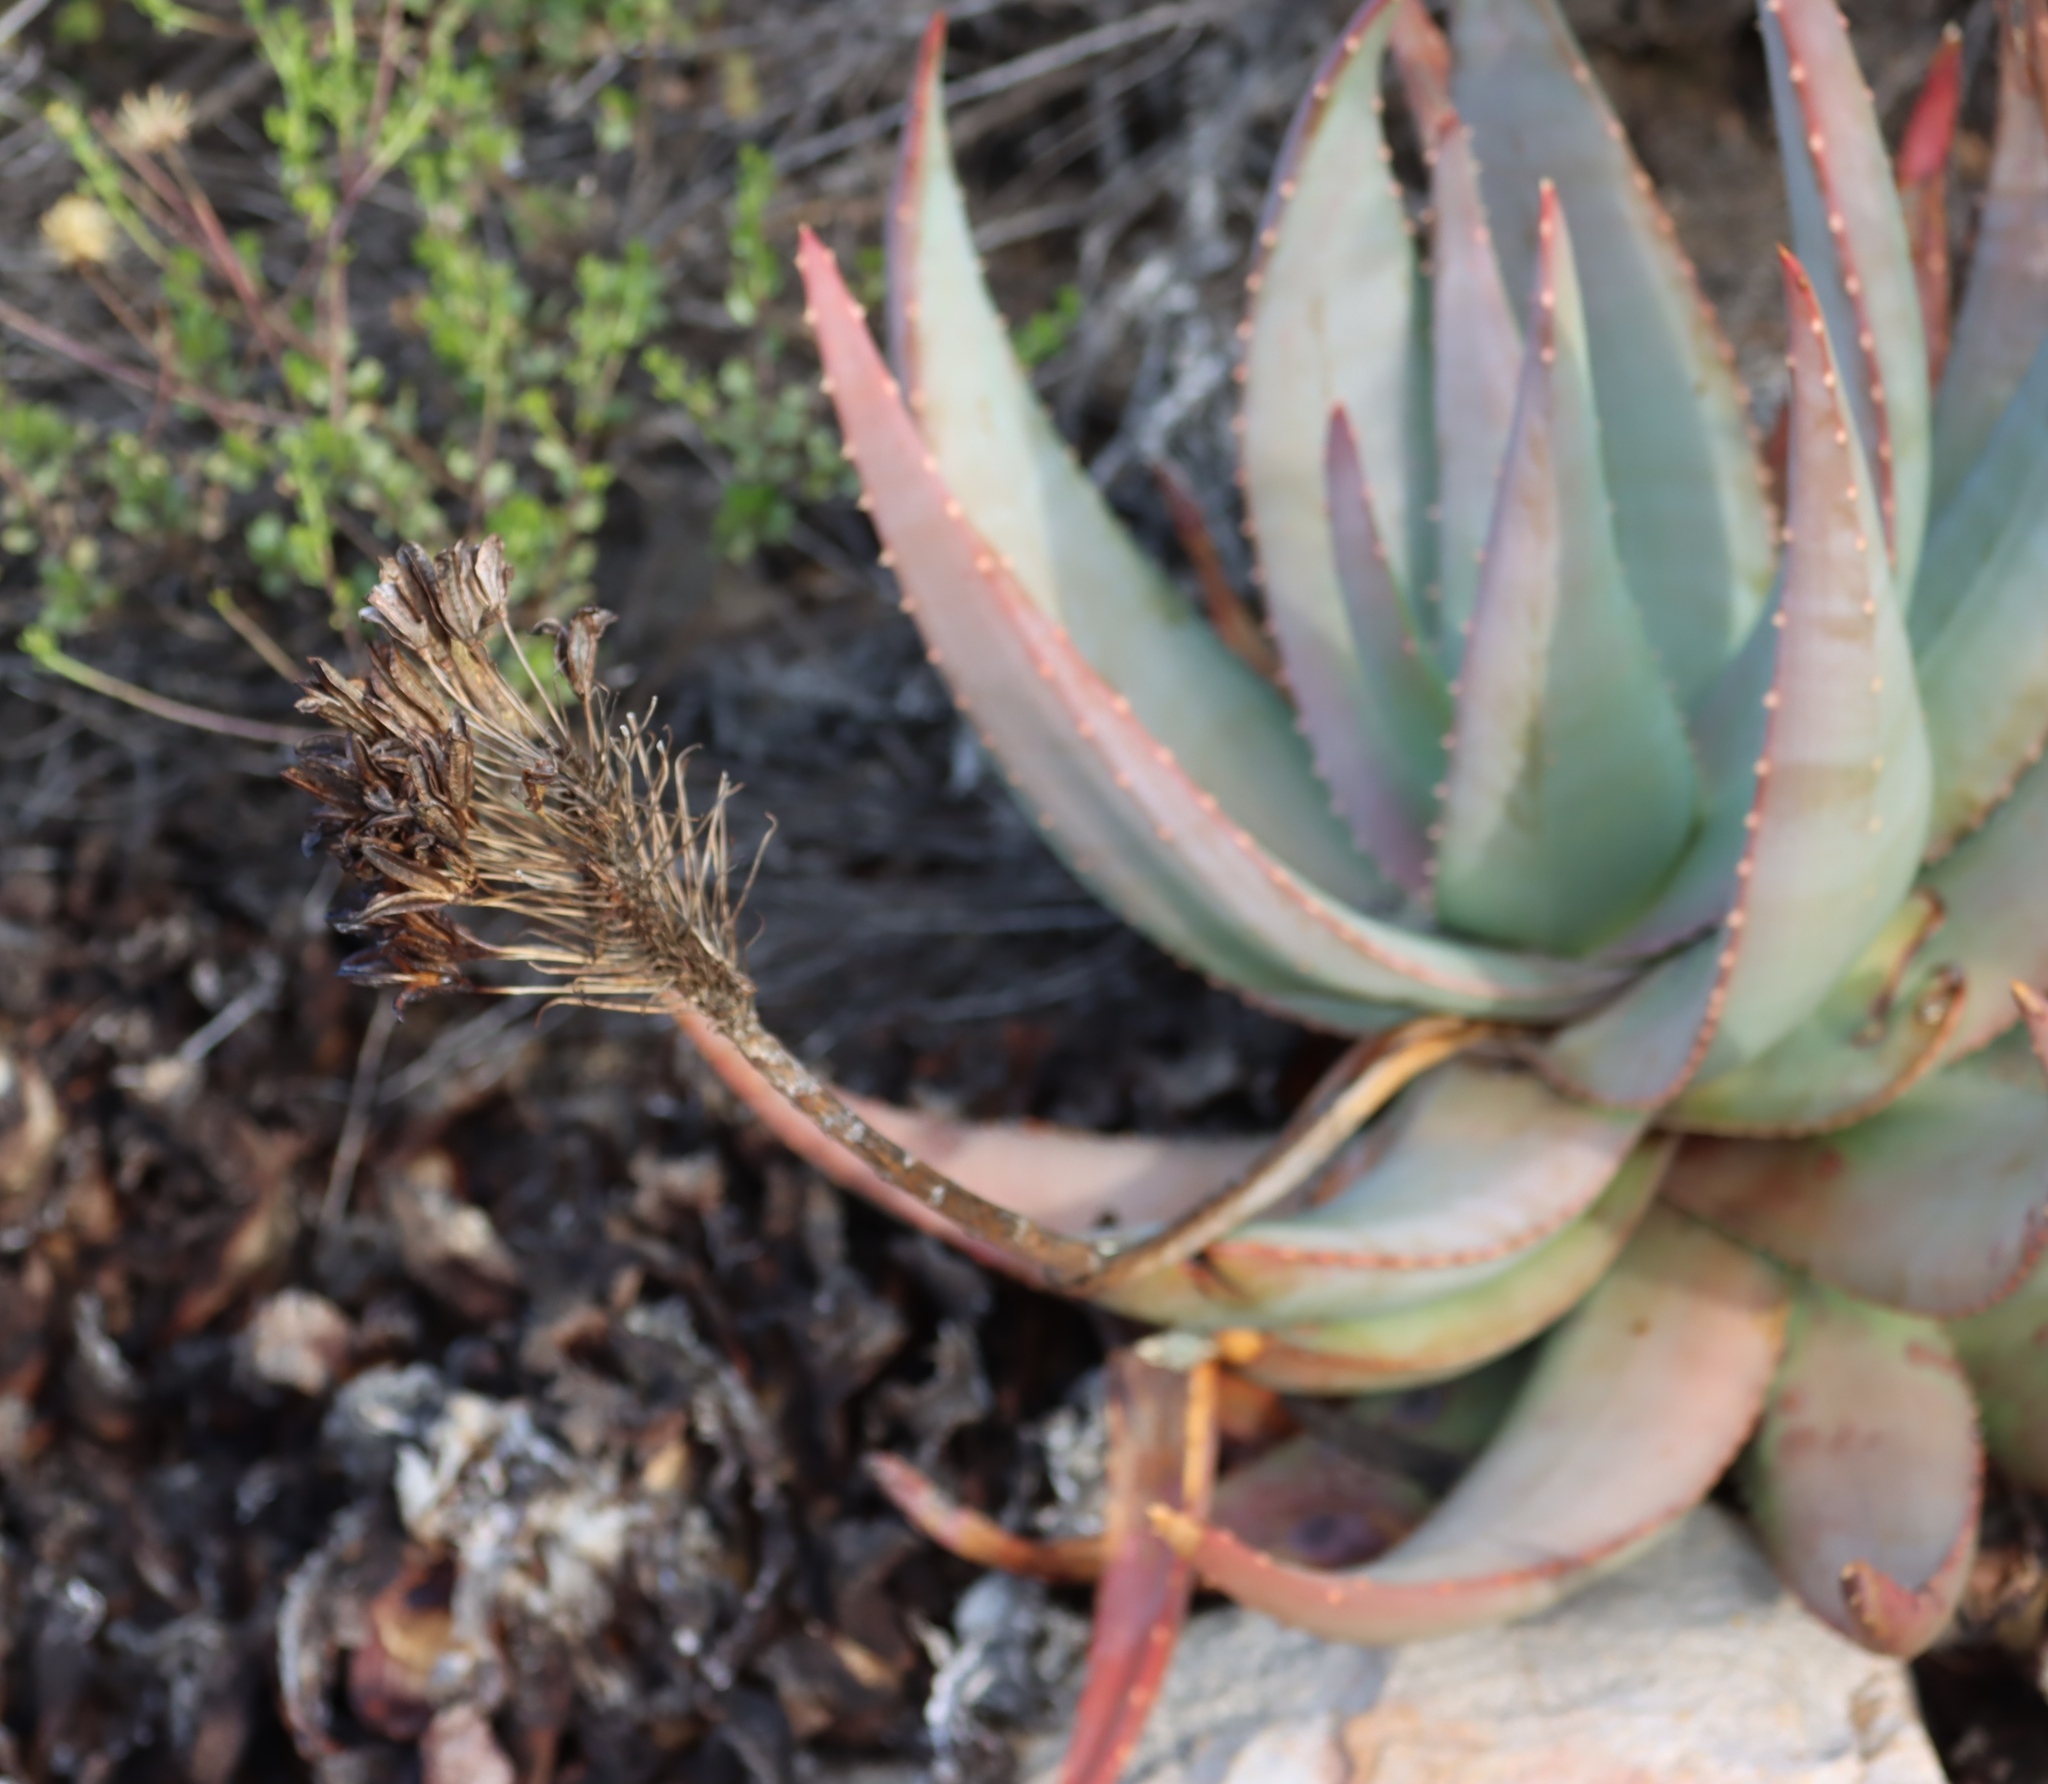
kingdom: Plantae
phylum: Tracheophyta
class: Liliopsida
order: Asparagales
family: Asphodelaceae
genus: Aloe
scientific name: Aloe comptonii
